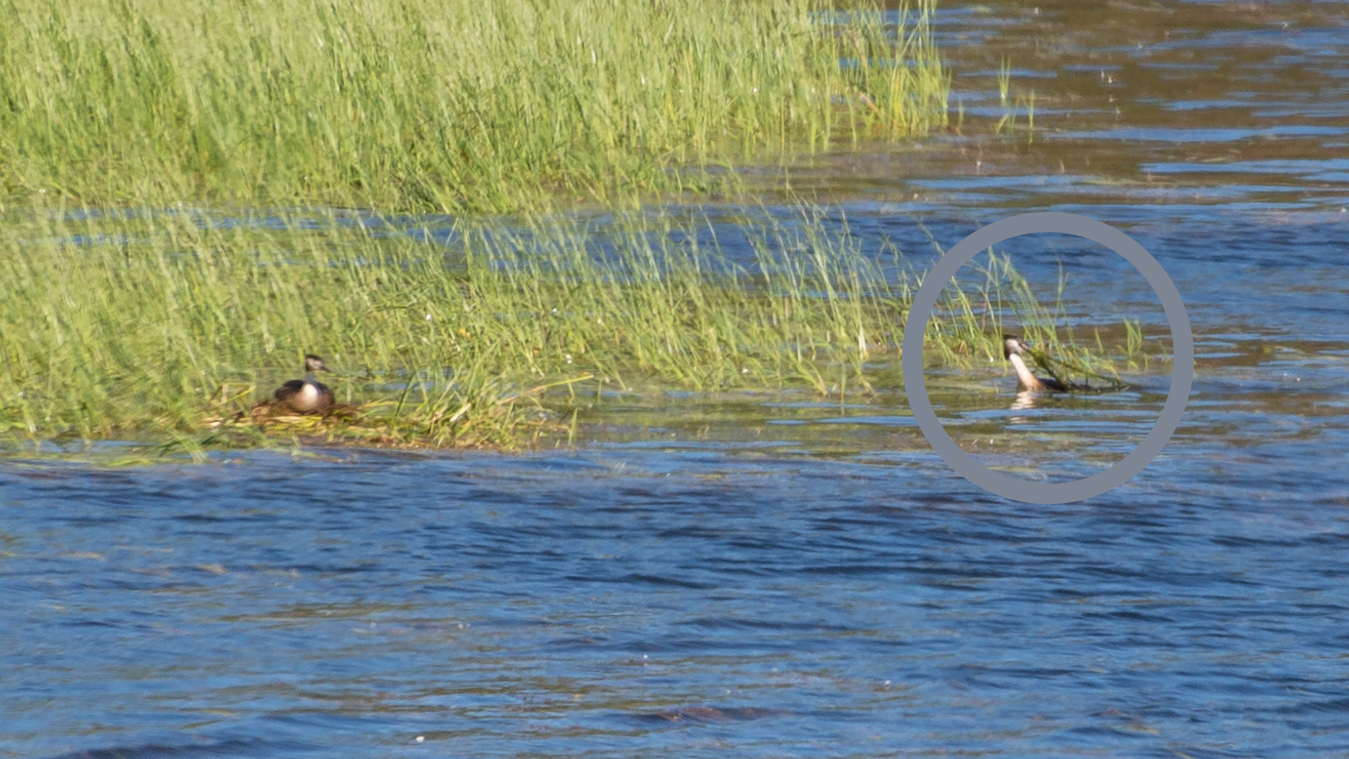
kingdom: Animalia
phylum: Chordata
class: Aves
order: Podicipediformes
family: Podicipedidae
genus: Podiceps
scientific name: Podiceps cristatus
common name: Great crested grebe
